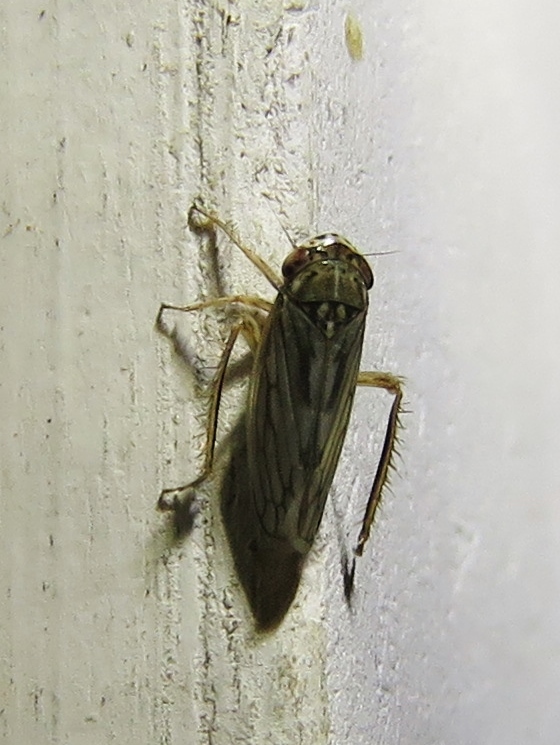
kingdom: Animalia
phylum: Arthropoda
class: Insecta
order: Hemiptera
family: Cicadellidae
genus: Exitianus
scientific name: Exitianus exitiosus
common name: Gray lawn leafhopper
